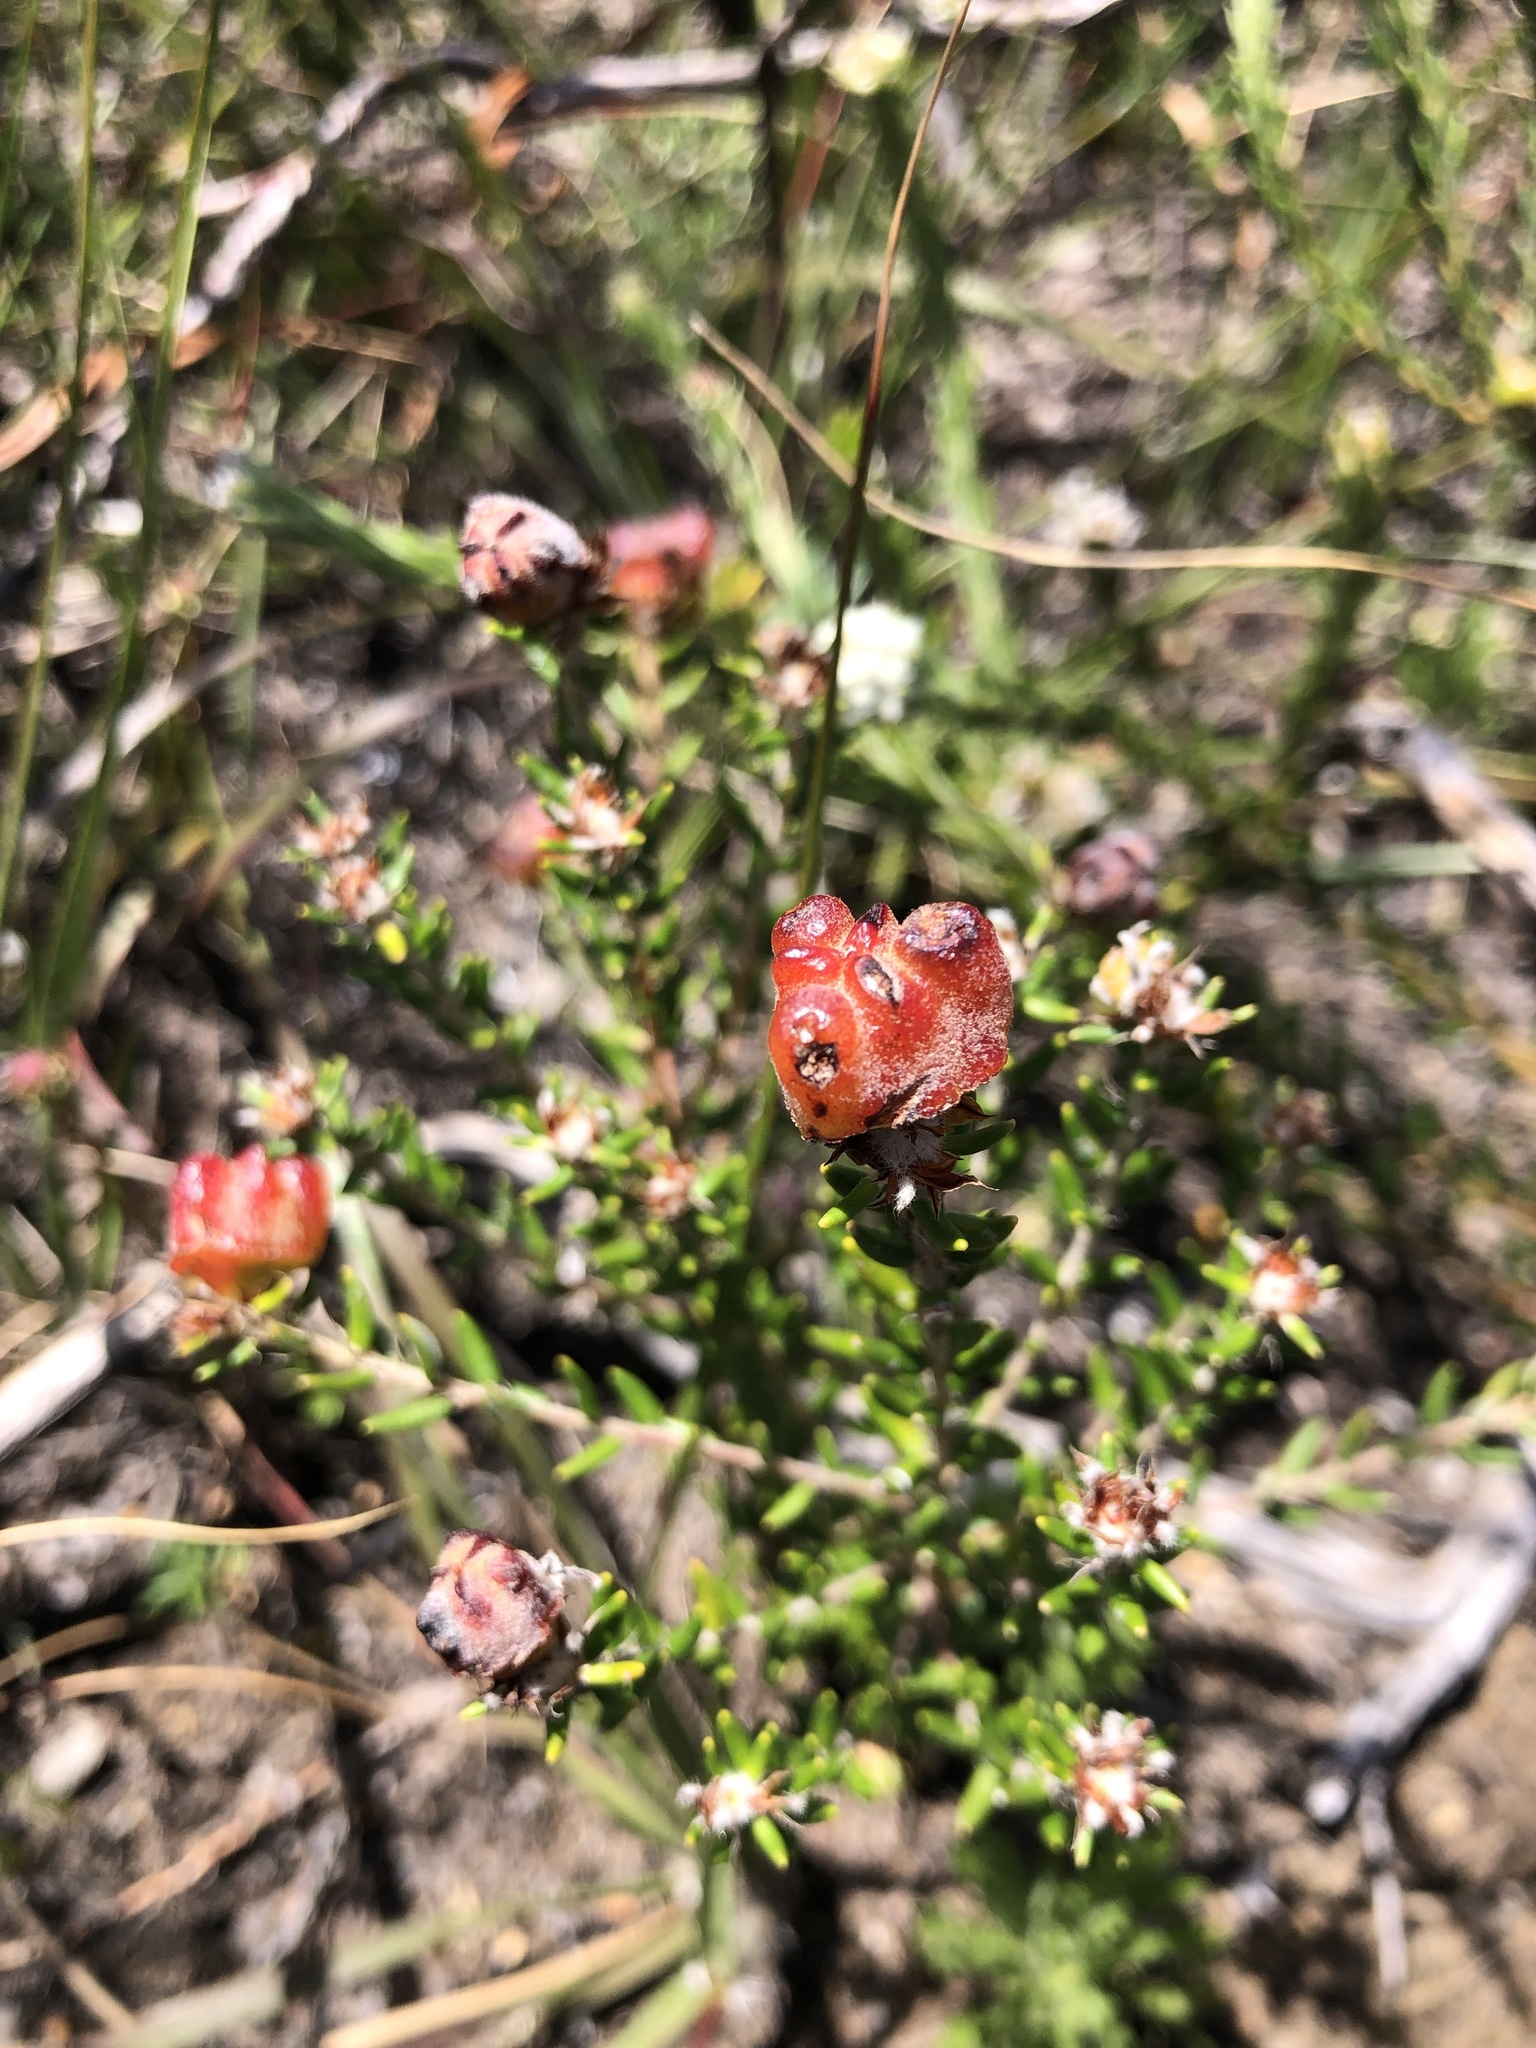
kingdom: Plantae
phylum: Tracheophyta
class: Magnoliopsida
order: Rosales
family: Rhamnaceae
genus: Trichocephalus
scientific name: Trichocephalus stipularis
